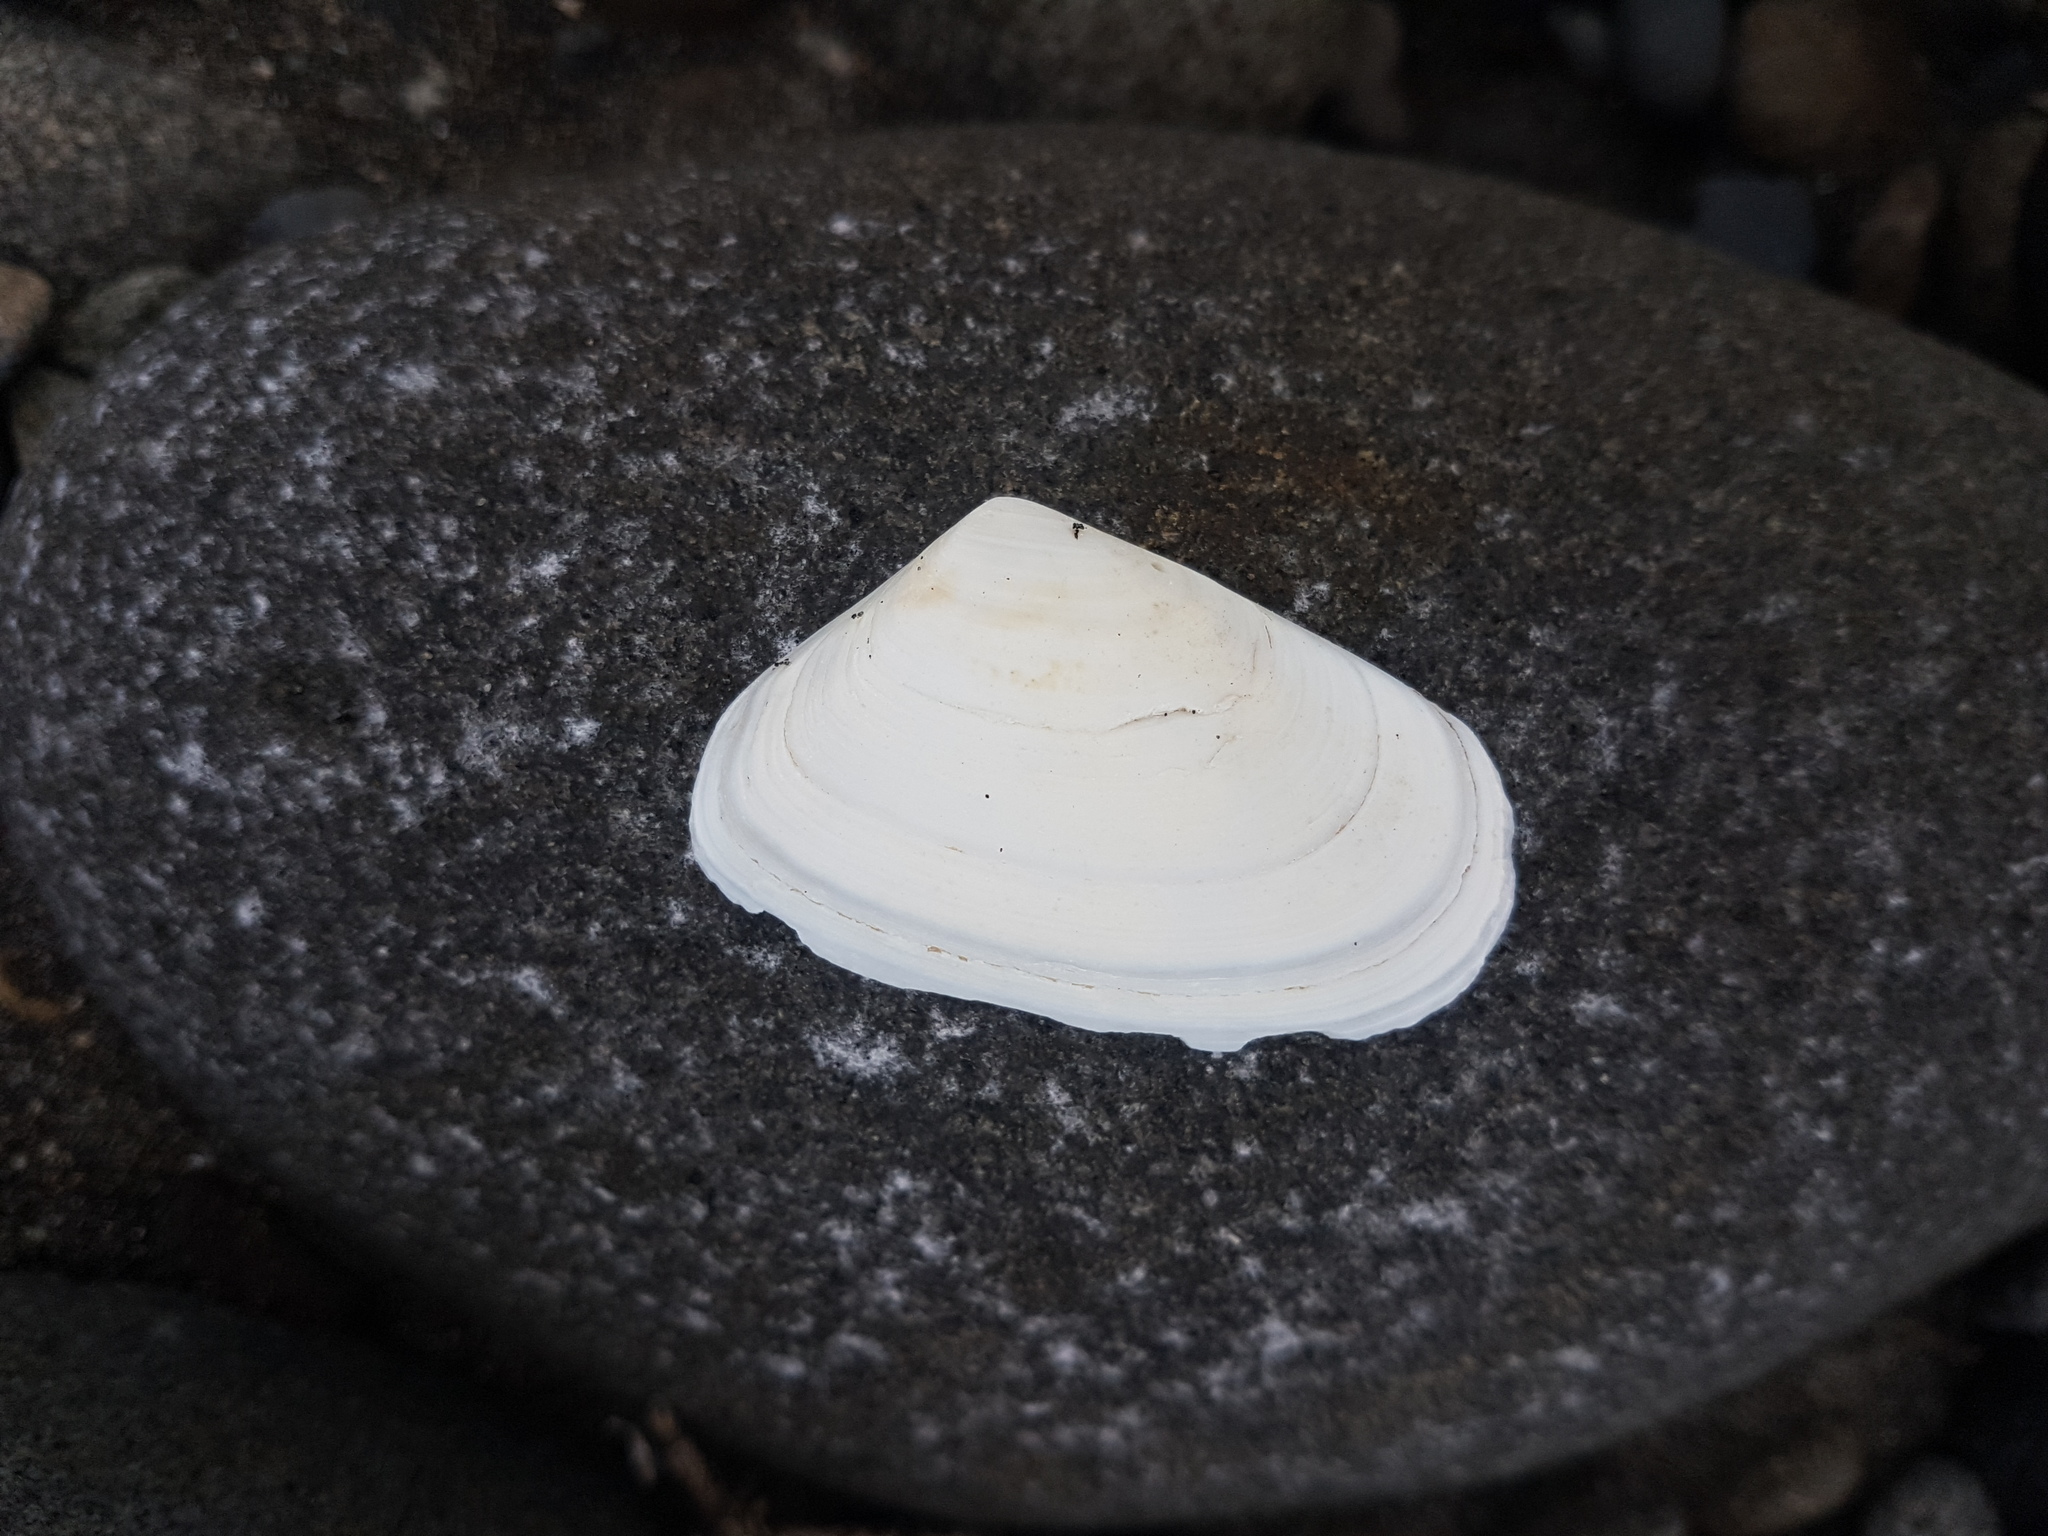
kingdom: Animalia
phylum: Mollusca
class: Bivalvia
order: Venerida
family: Mesodesmatidae
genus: Paphies
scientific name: Paphies subtriangulata
